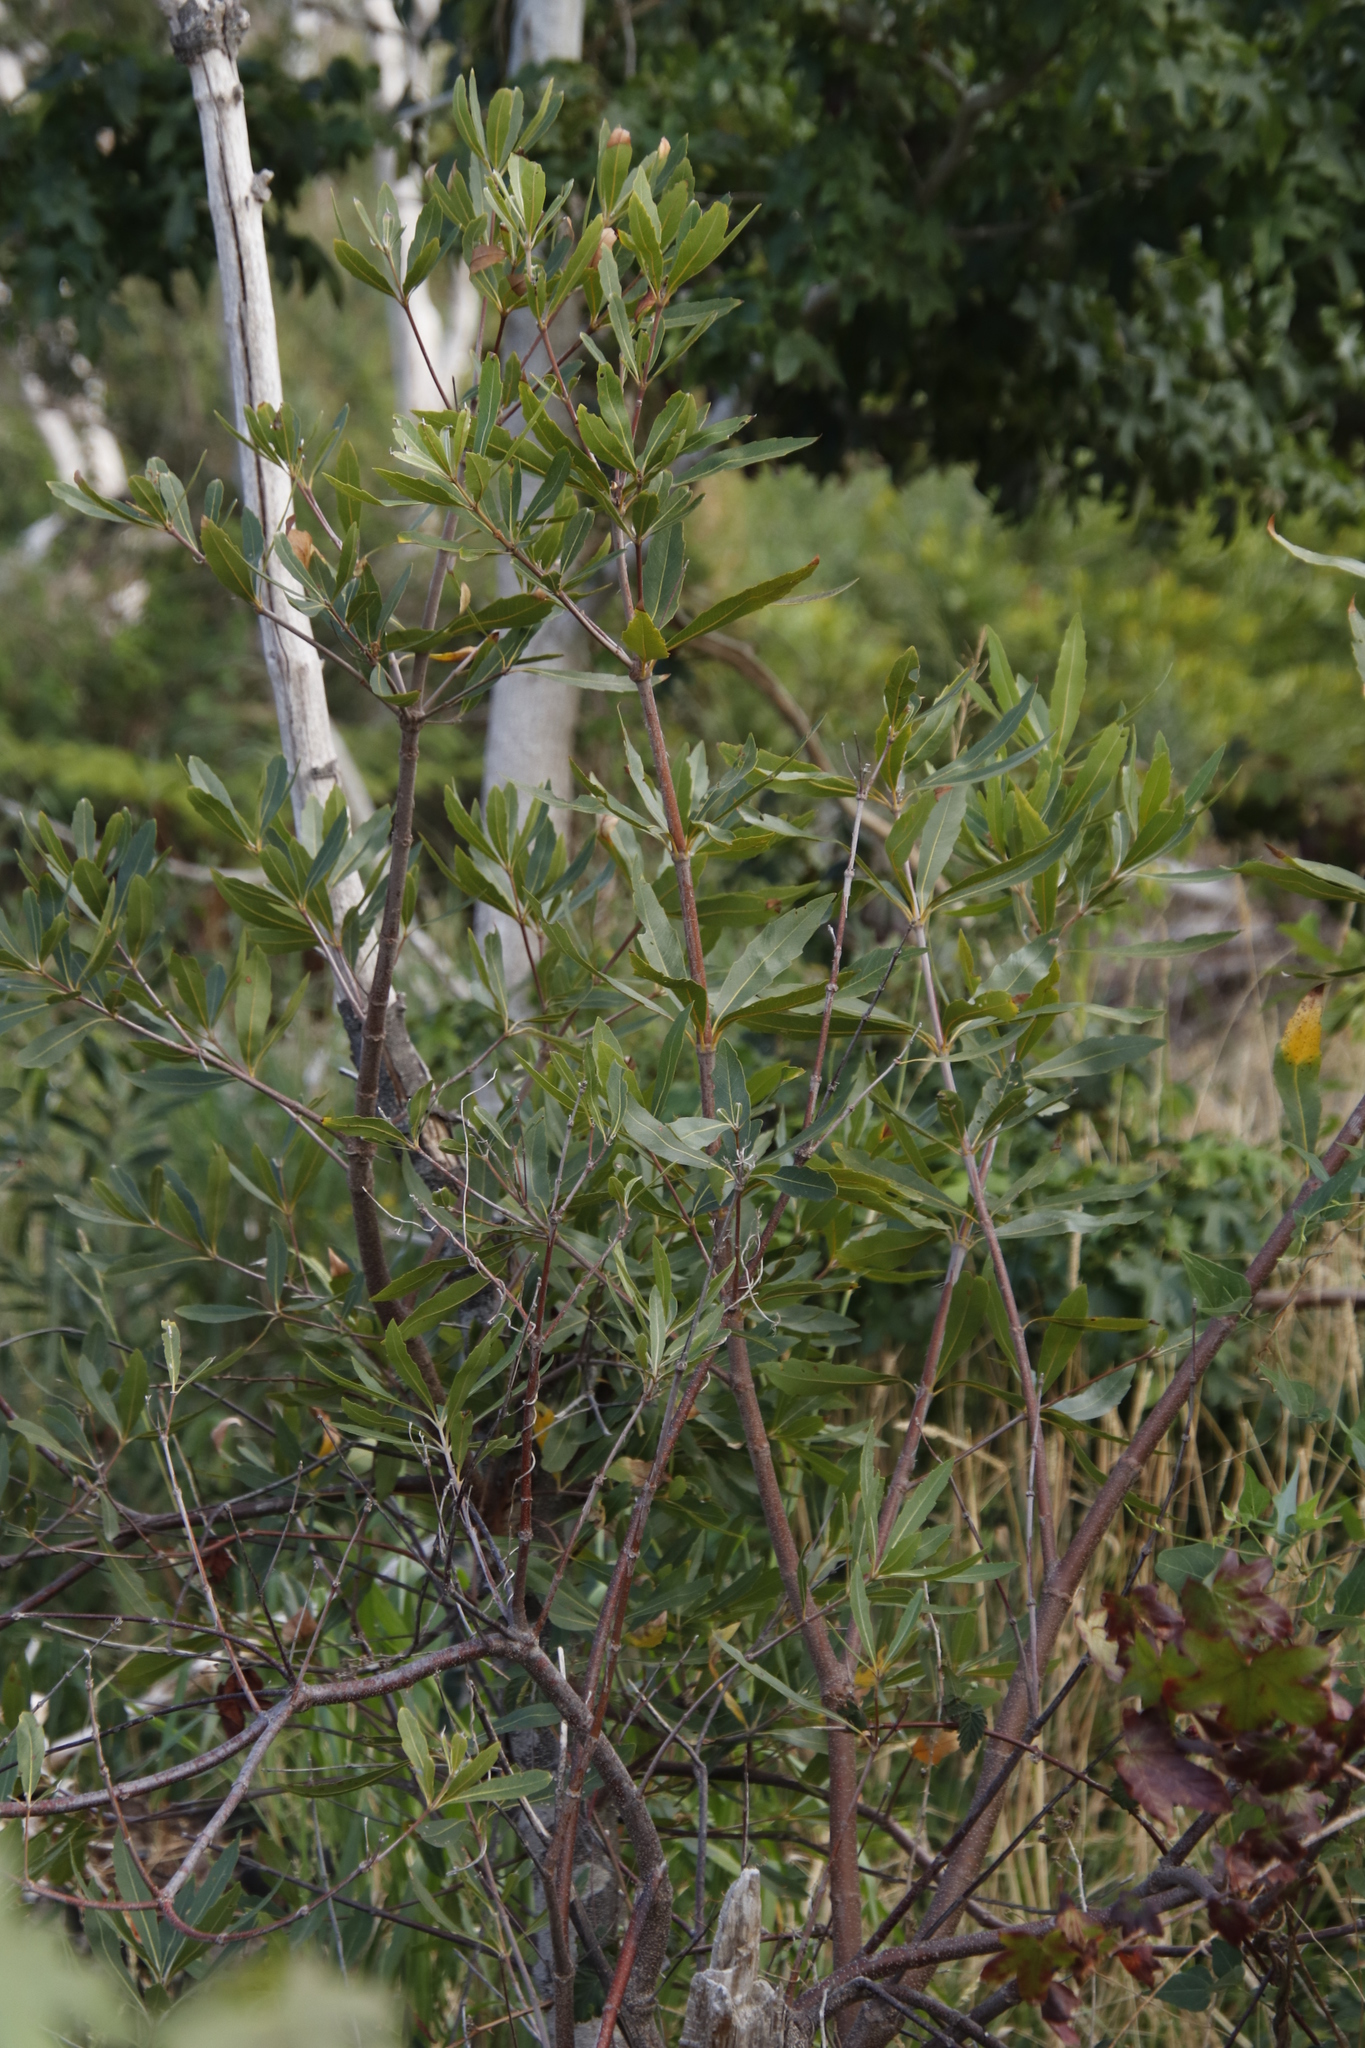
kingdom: Plantae
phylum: Tracheophyta
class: Magnoliopsida
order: Proteales
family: Proteaceae
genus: Brabejum
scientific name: Brabejum stellatifolium
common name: Wild almond
